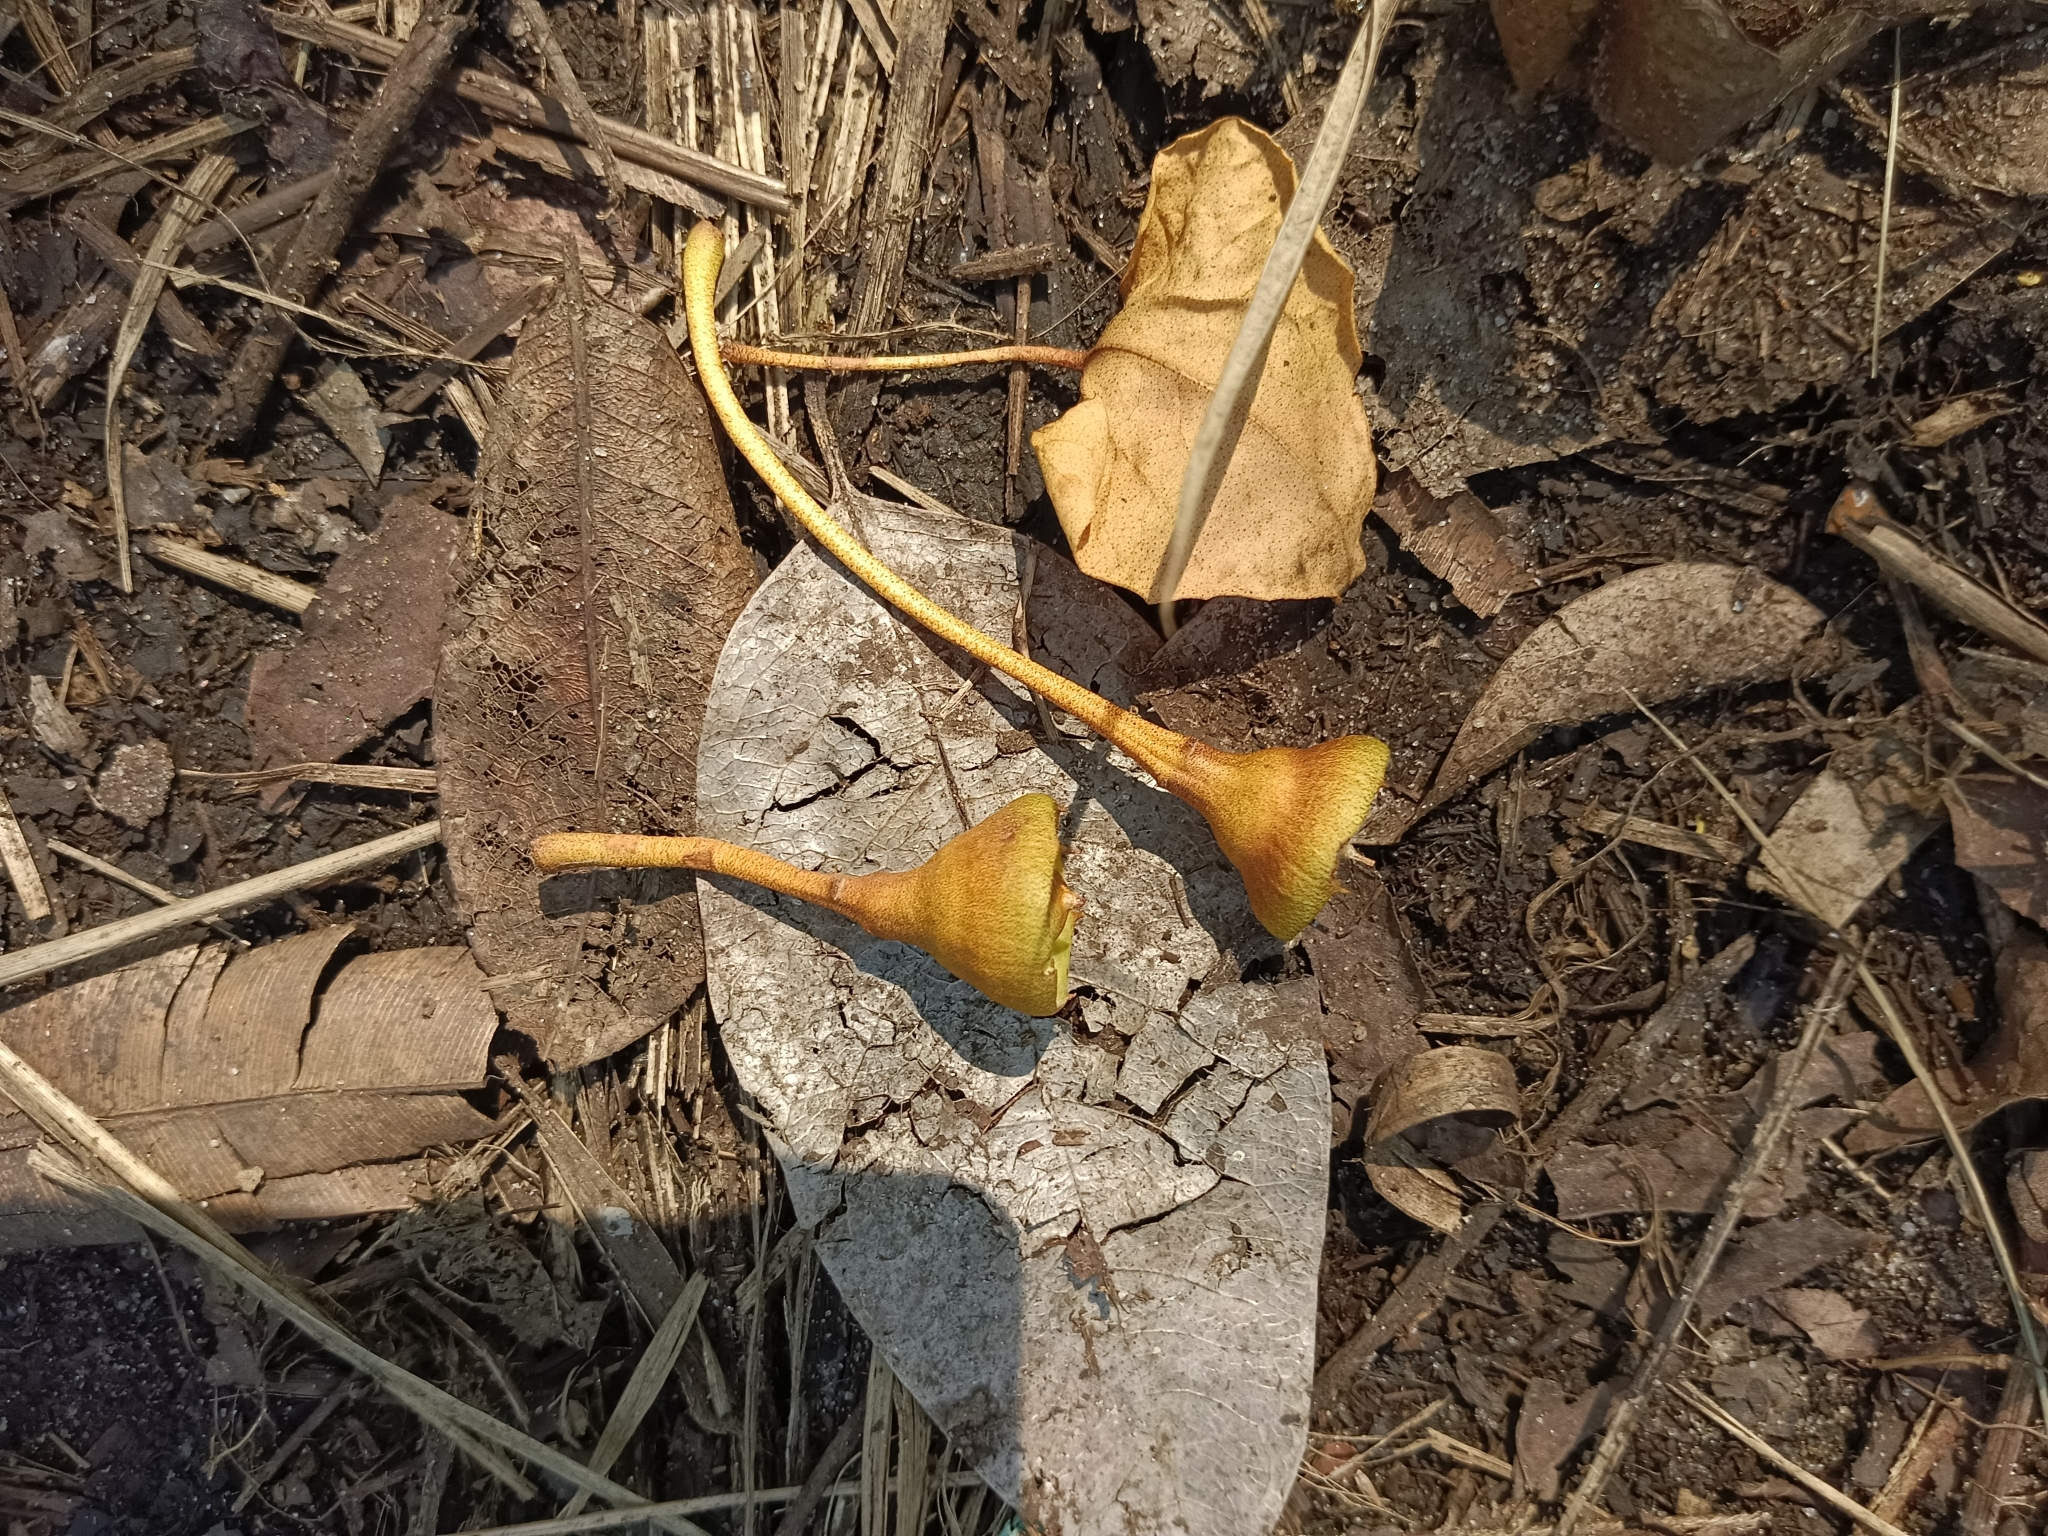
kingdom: Plantae
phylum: Tracheophyta
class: Magnoliopsida
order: Malvales
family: Malvaceae
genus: Thespesia
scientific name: Thespesia populnea
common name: Seaside mahoe
